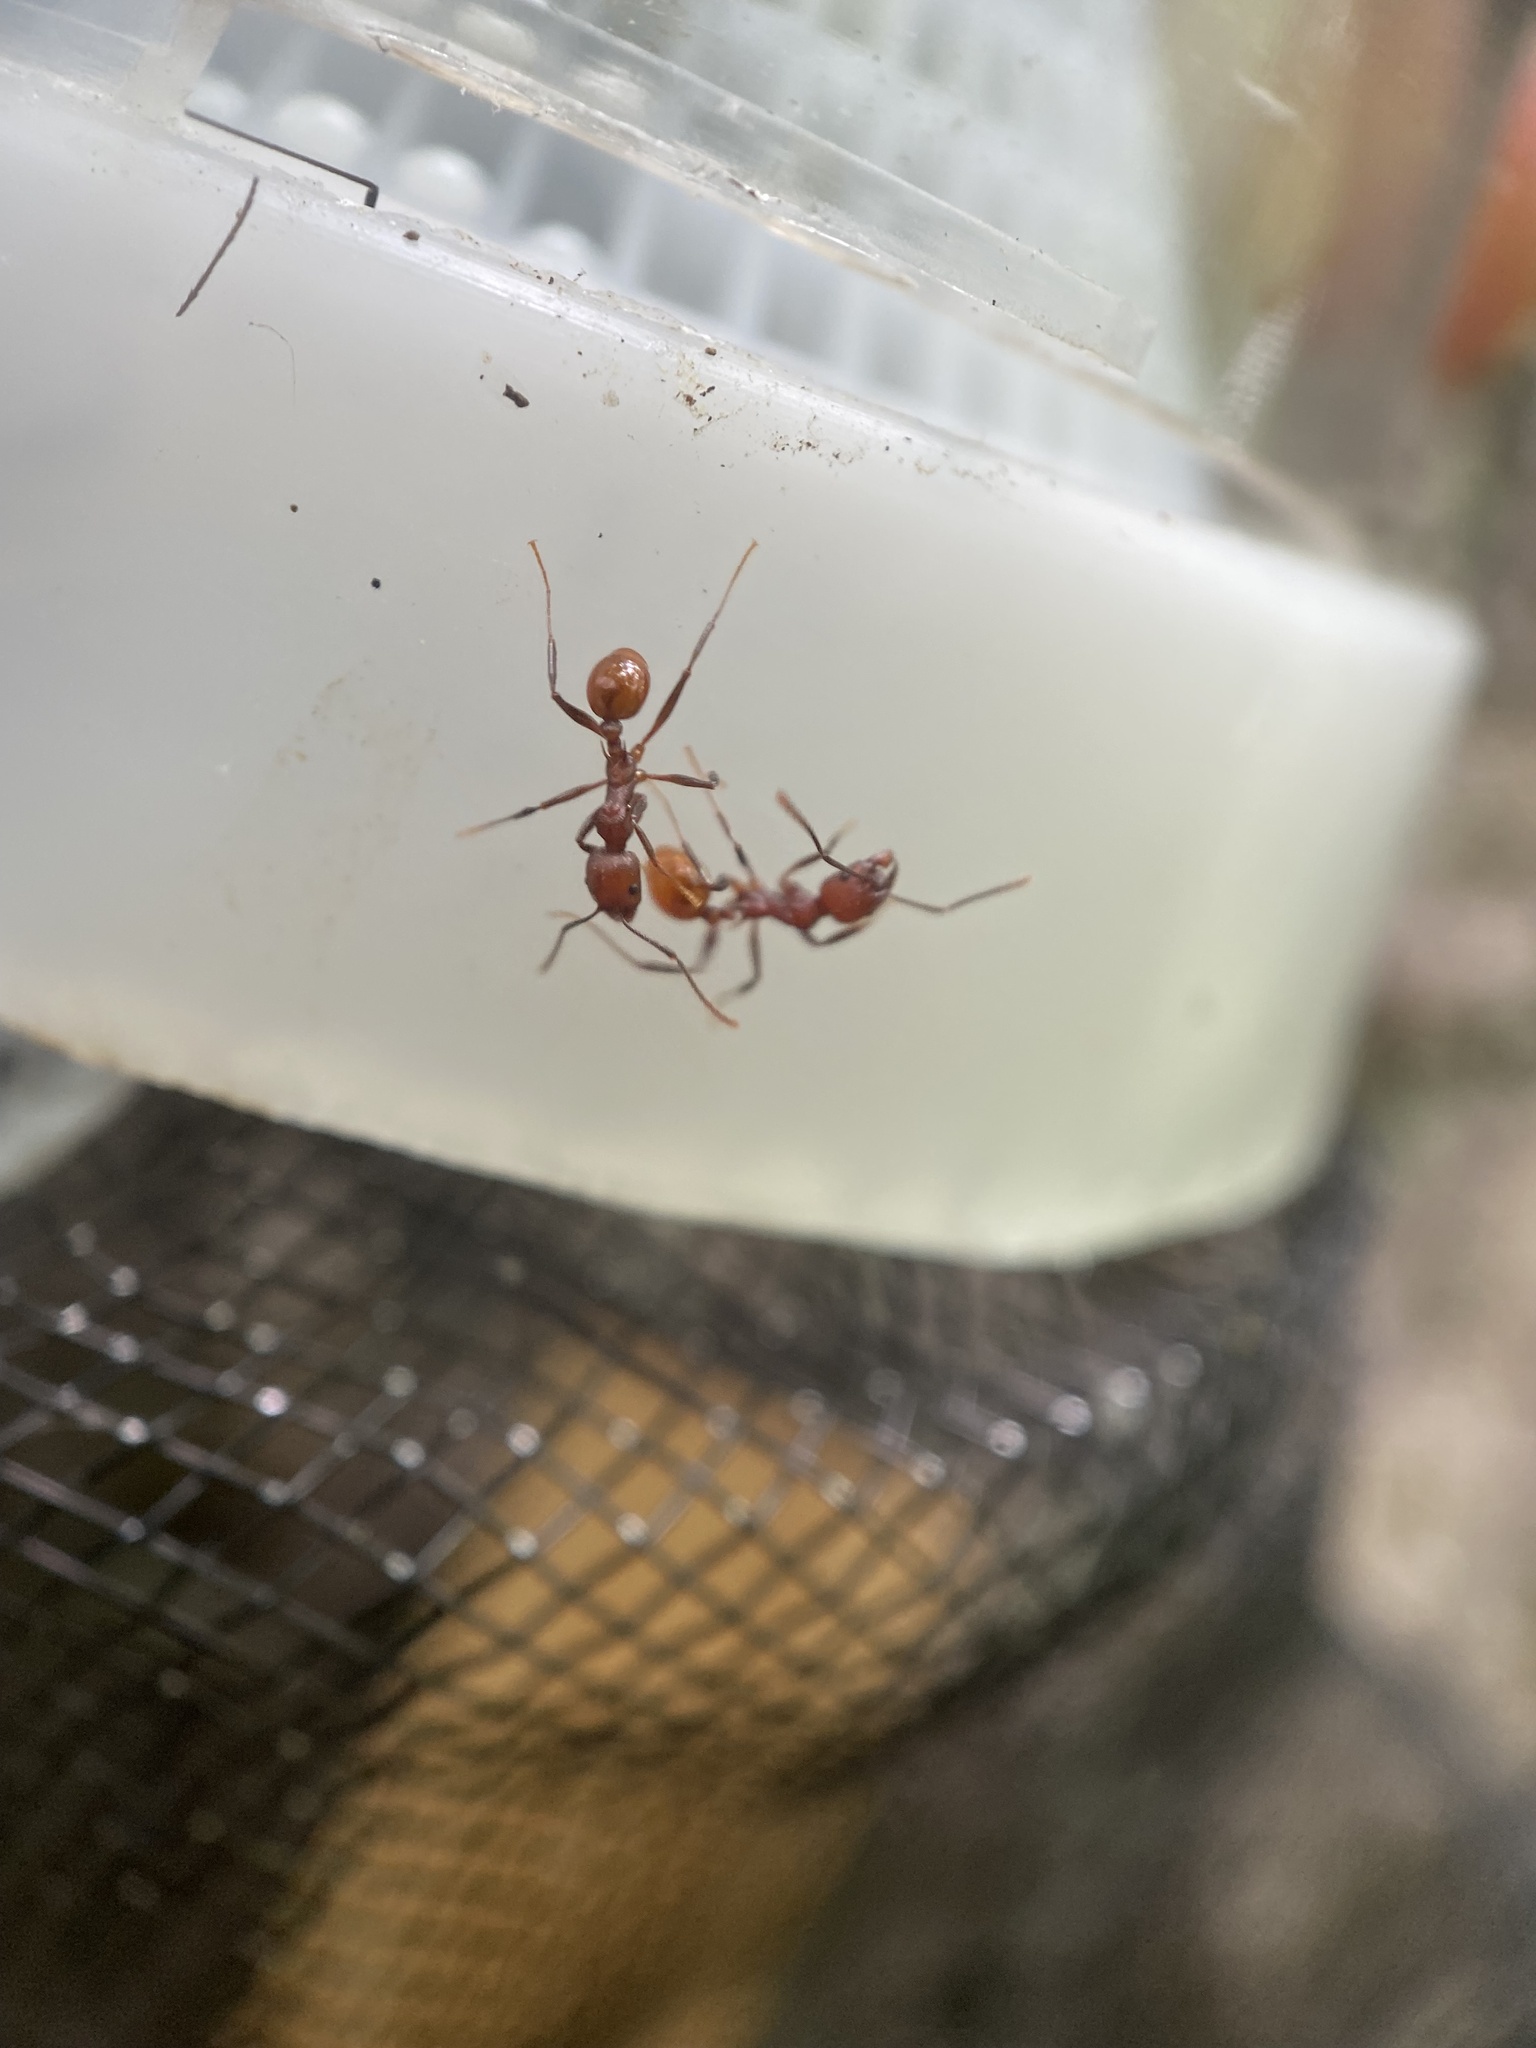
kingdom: Animalia
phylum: Arthropoda
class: Insecta
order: Hymenoptera
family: Formicidae
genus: Aphaenogaster
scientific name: Aphaenogaster tennesseensis
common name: Tennessee thread-waisted ant
